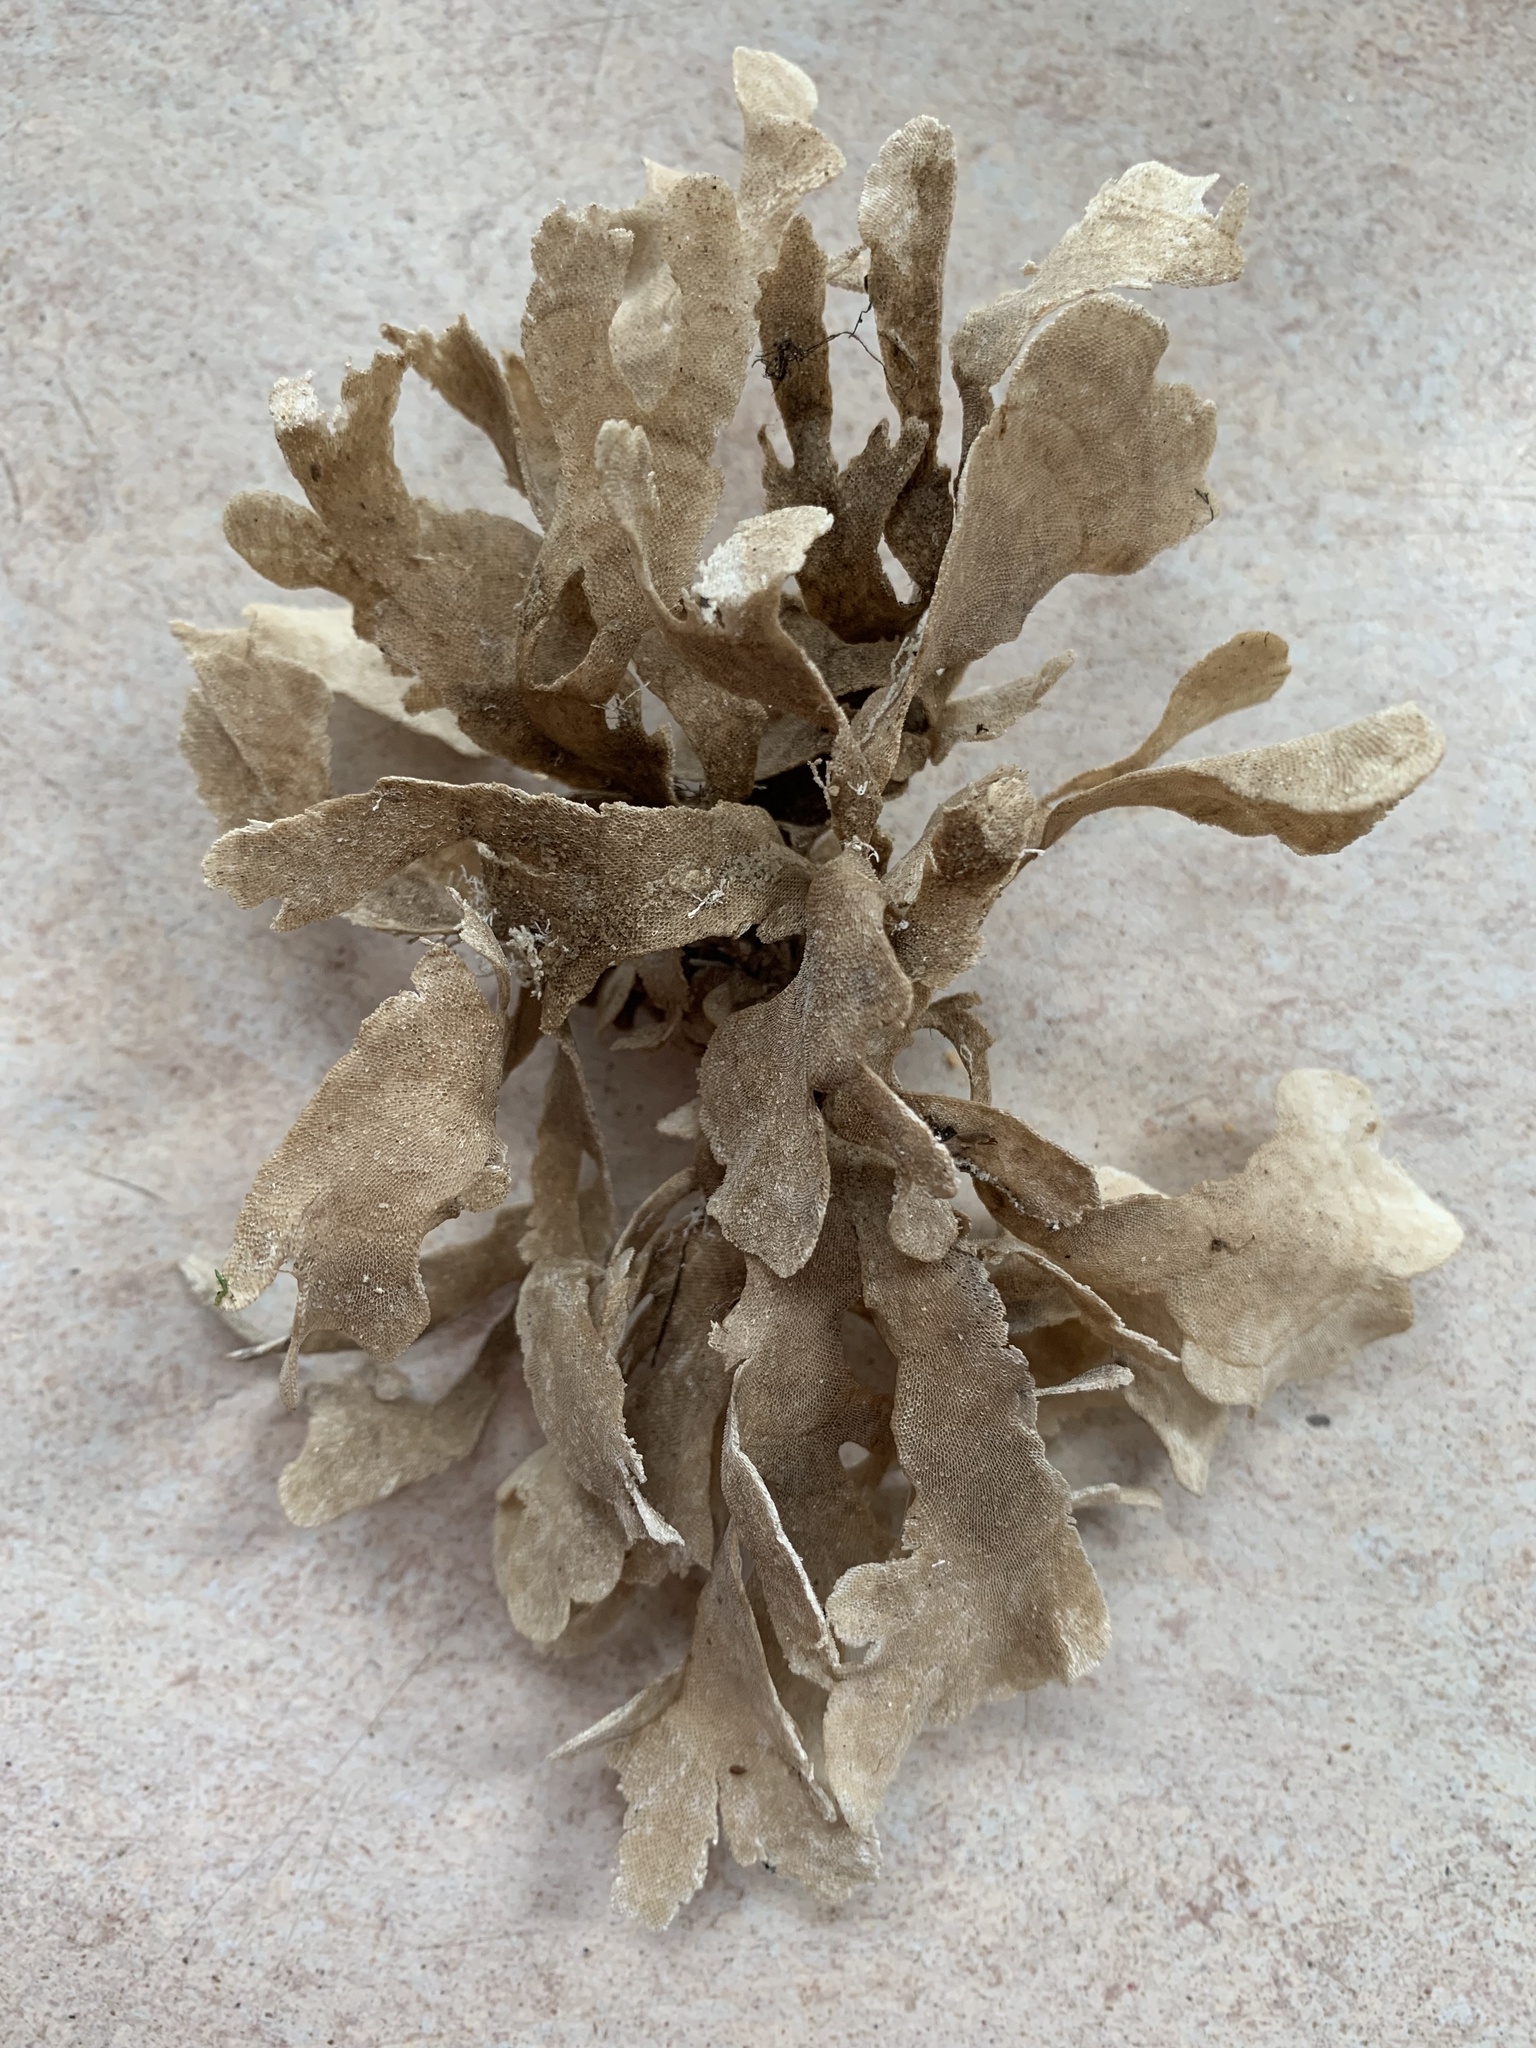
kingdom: Animalia
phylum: Bryozoa
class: Gymnolaemata
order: Cheilostomatida
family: Flustridae
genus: Flustra
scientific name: Flustra foliacea
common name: Hornwrack
